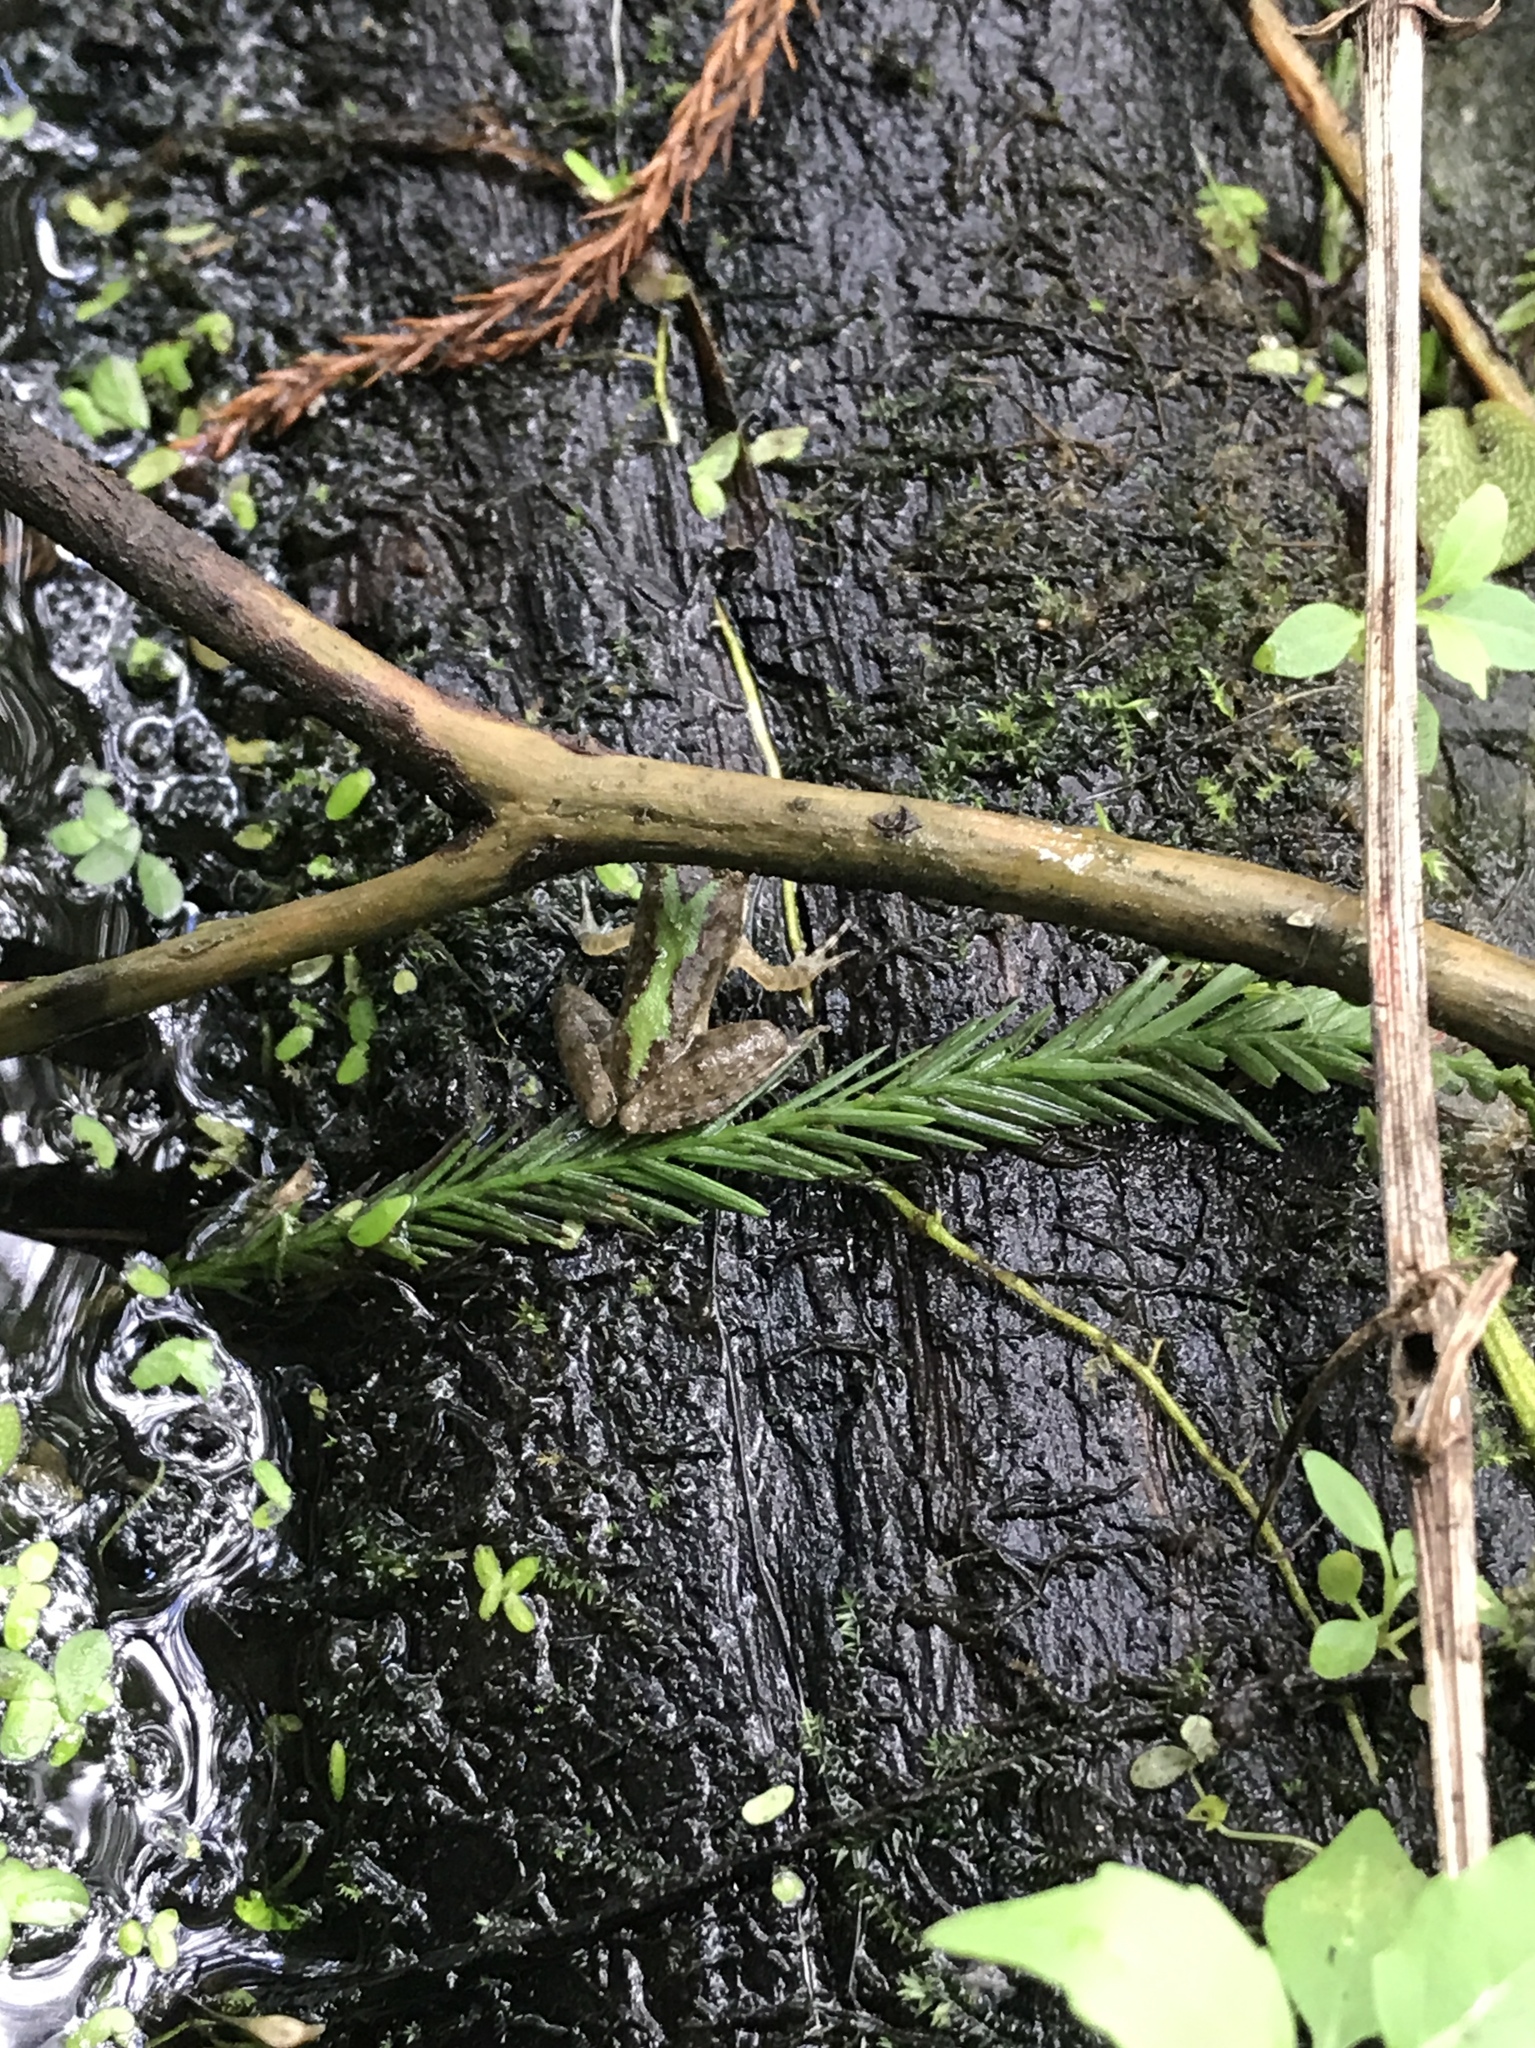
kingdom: Animalia
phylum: Chordata
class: Amphibia
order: Anura
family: Hylidae
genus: Acris
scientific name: Acris blanchardi
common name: Blanchard's cricket frog
